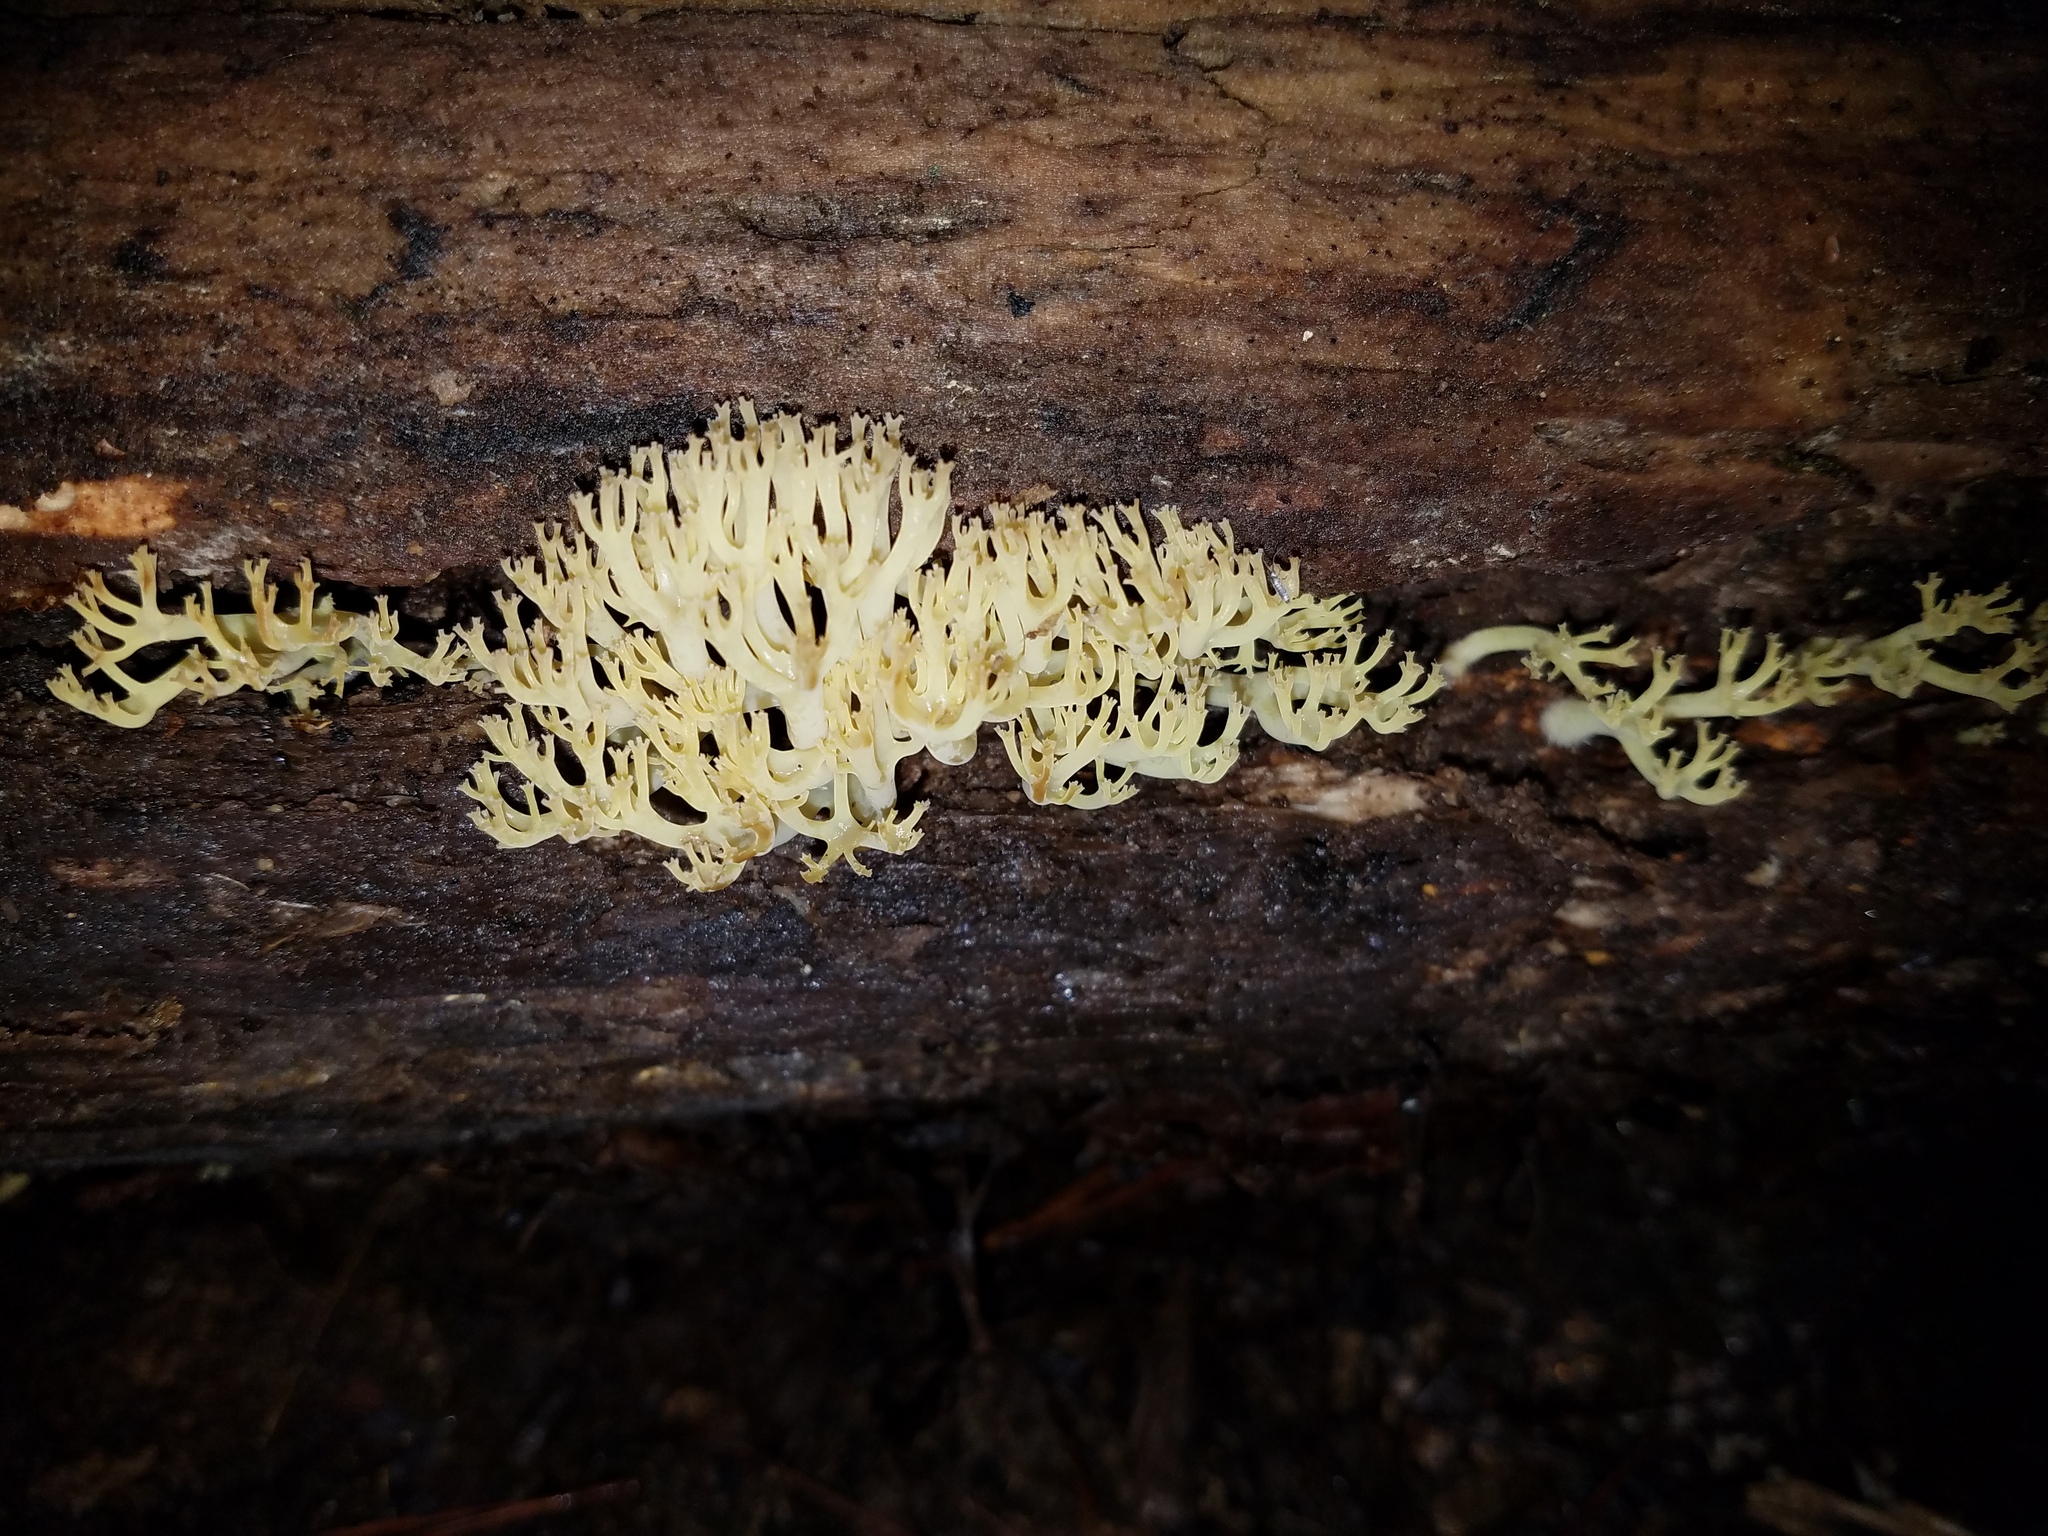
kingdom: Fungi
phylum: Basidiomycota
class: Agaricomycetes
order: Russulales
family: Auriscalpiaceae
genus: Artomyces
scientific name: Artomyces pyxidatus
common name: Crown-tipped coral fungus
